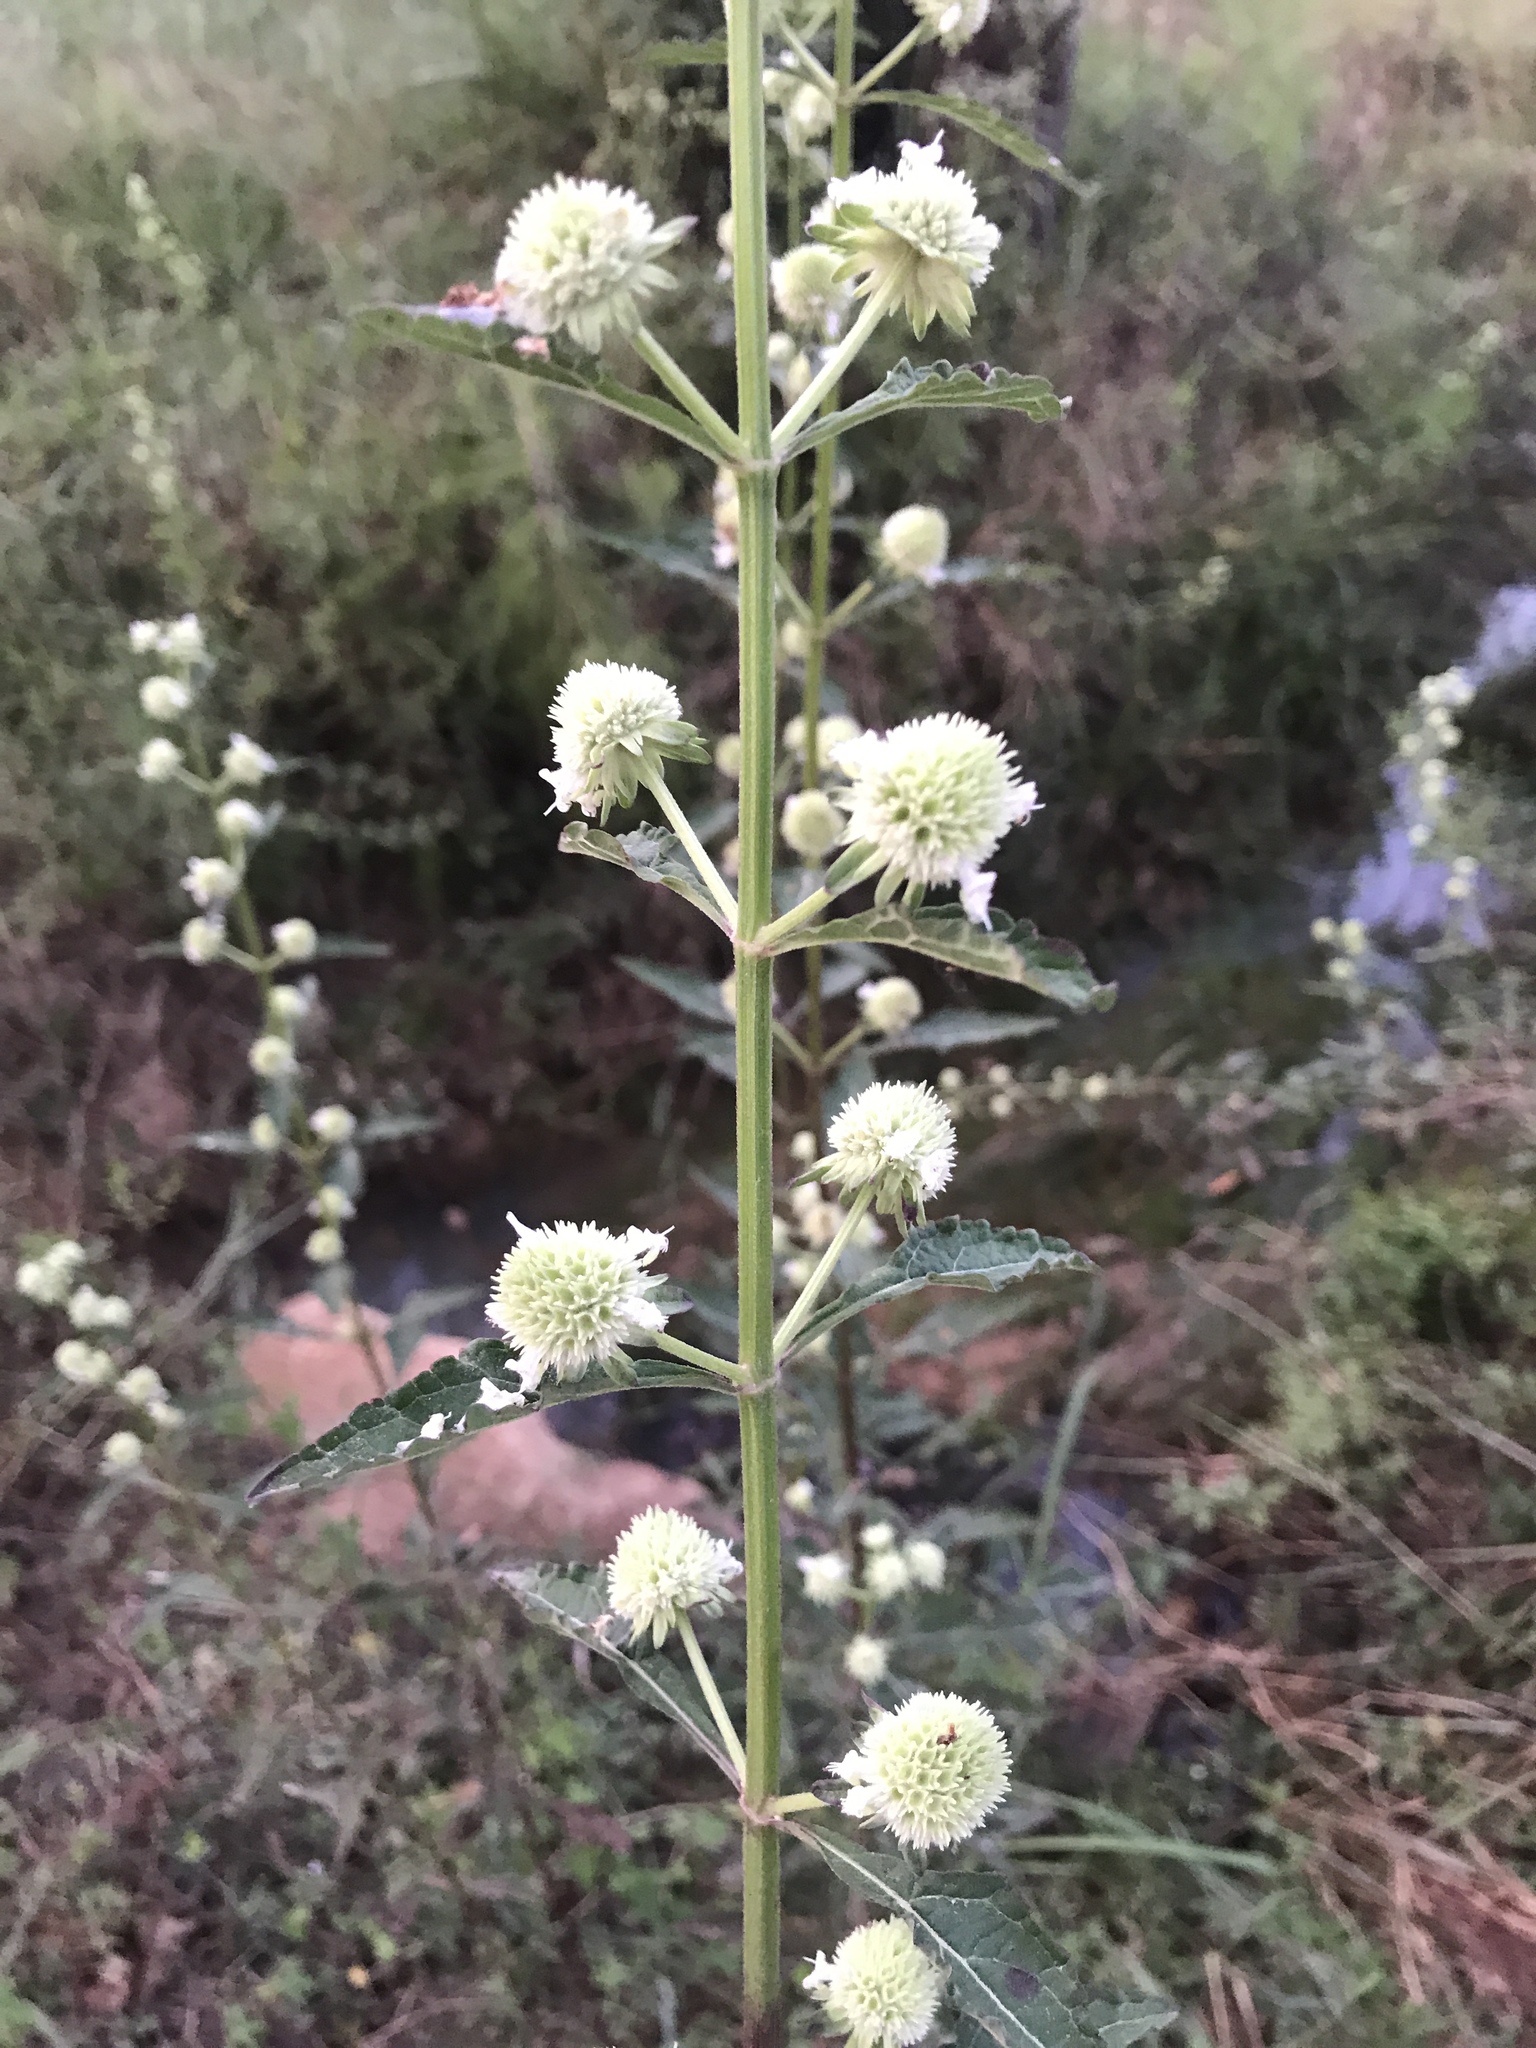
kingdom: Plantae
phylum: Tracheophyta
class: Magnoliopsida
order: Lamiales
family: Lamiaceae
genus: Hyptis
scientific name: Hyptis alata
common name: Cluster bush-mint
